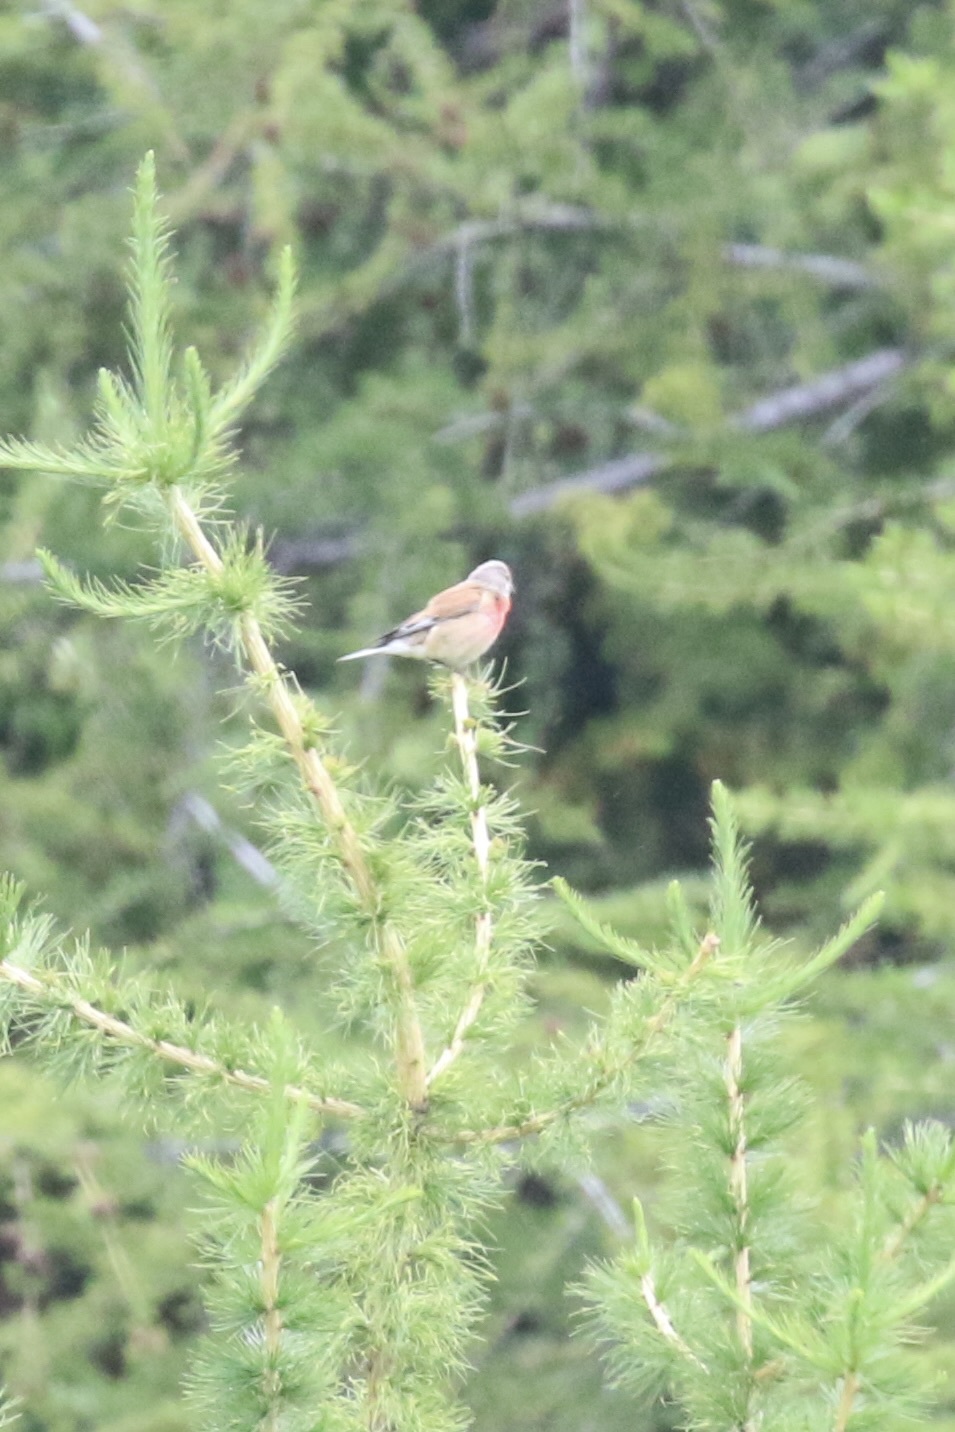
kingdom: Animalia
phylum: Chordata
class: Aves
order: Passeriformes
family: Fringillidae
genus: Linaria
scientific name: Linaria cannabina
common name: Common linnet
